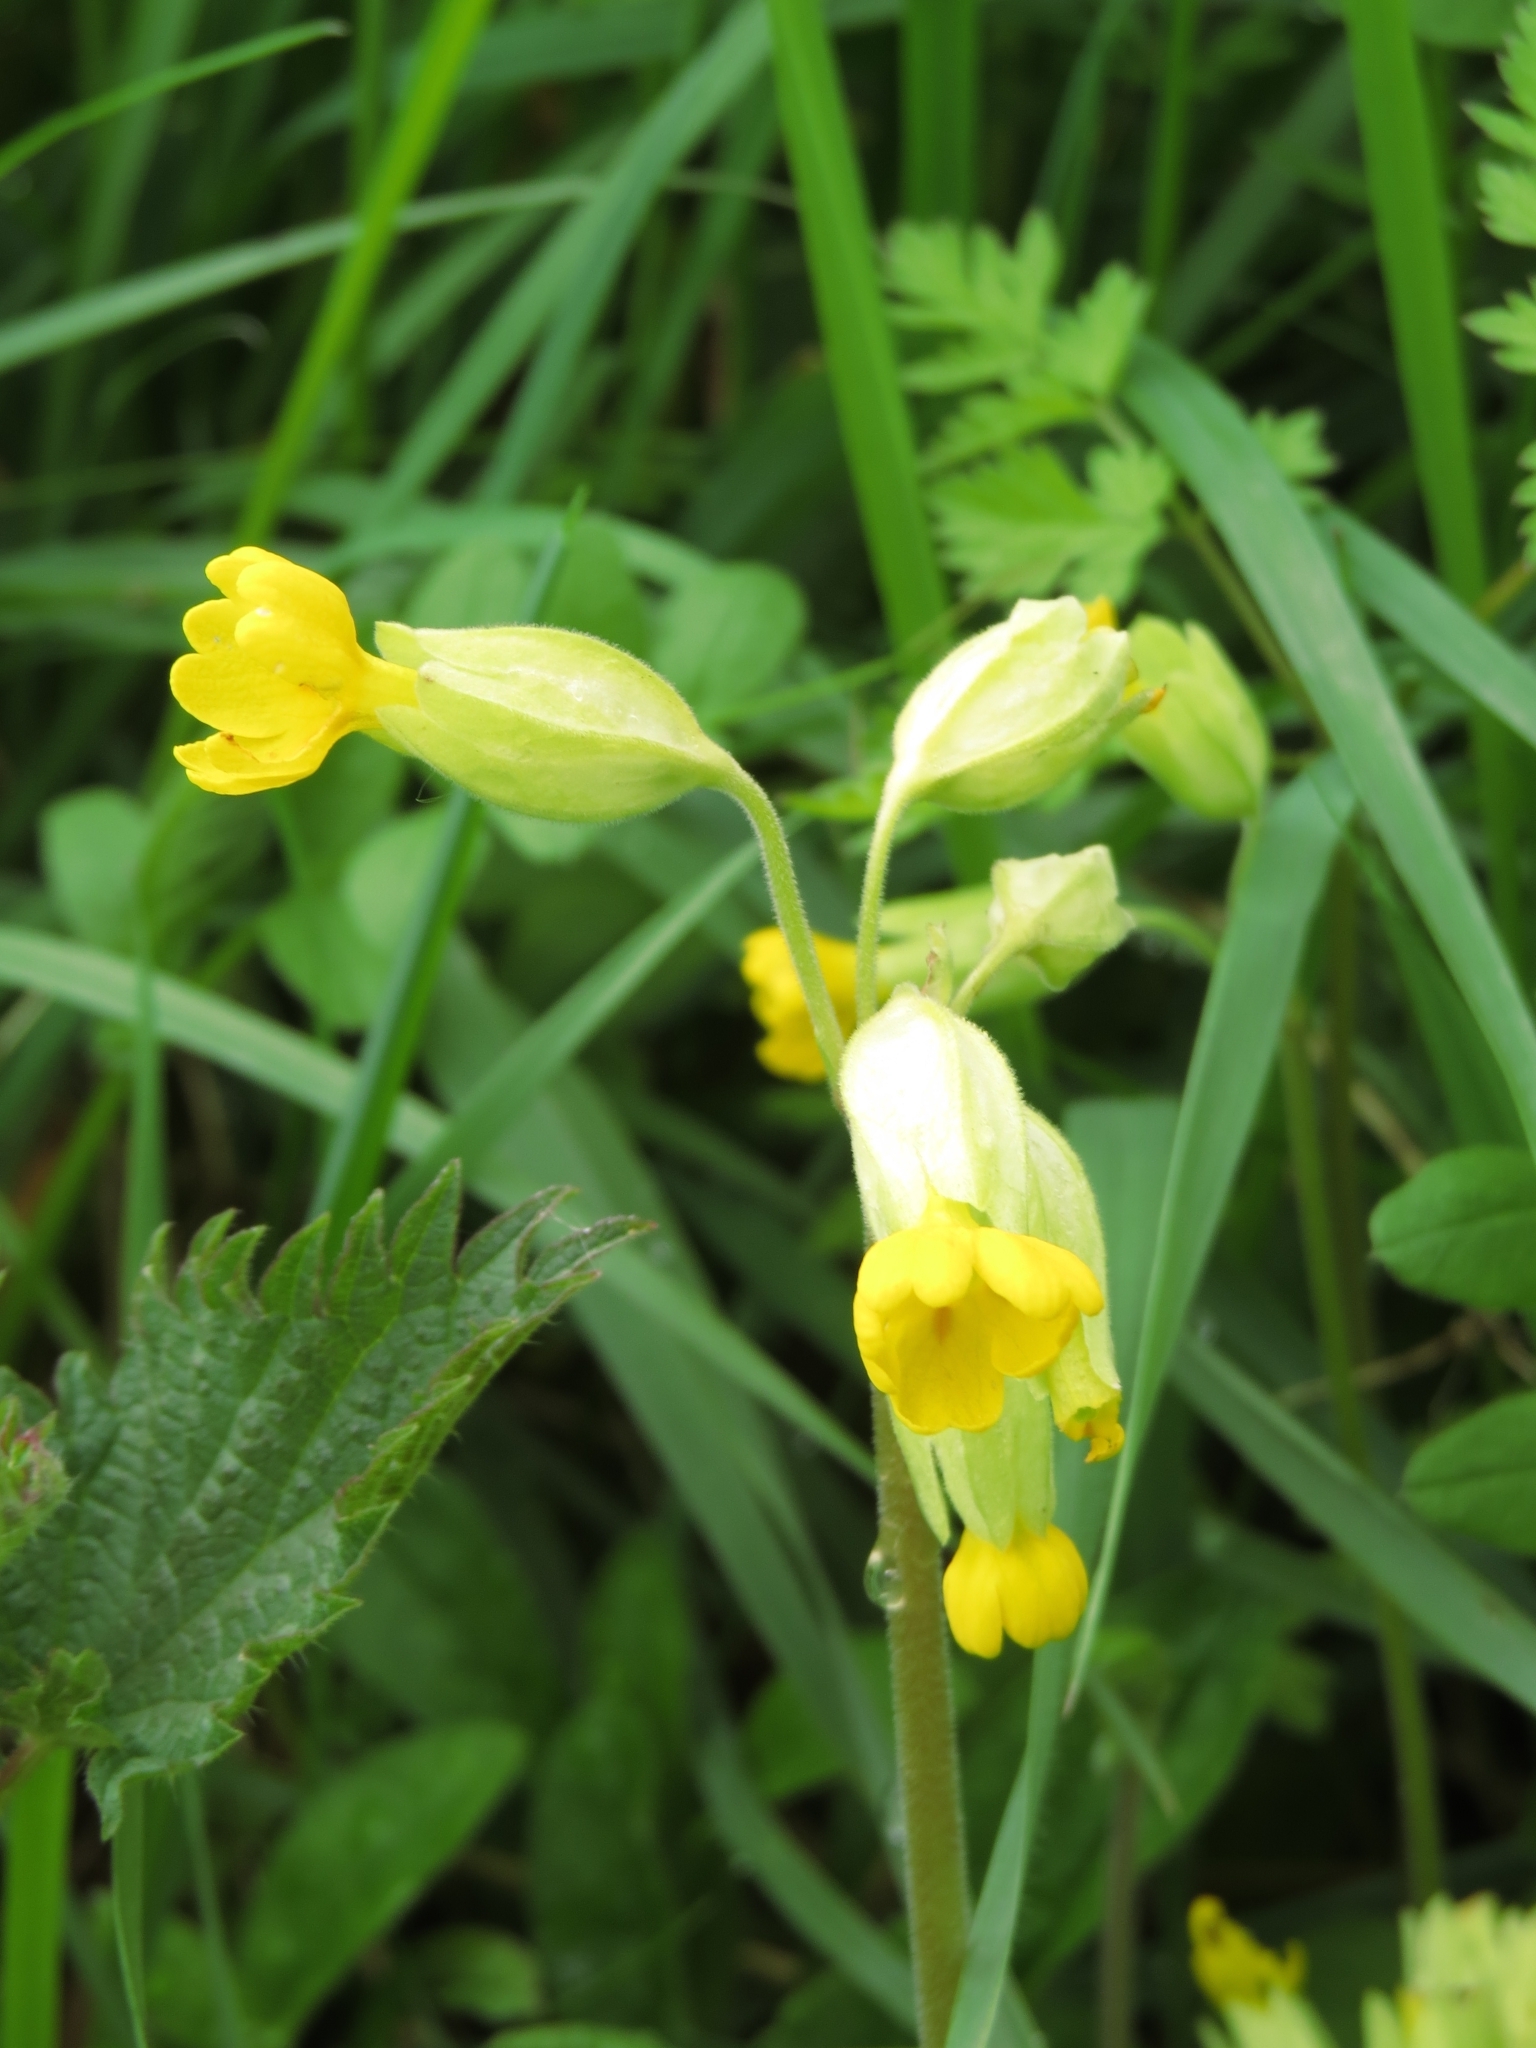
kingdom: Plantae
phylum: Tracheophyta
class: Magnoliopsida
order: Ericales
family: Primulaceae
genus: Primula
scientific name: Primula veris
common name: Cowslip
